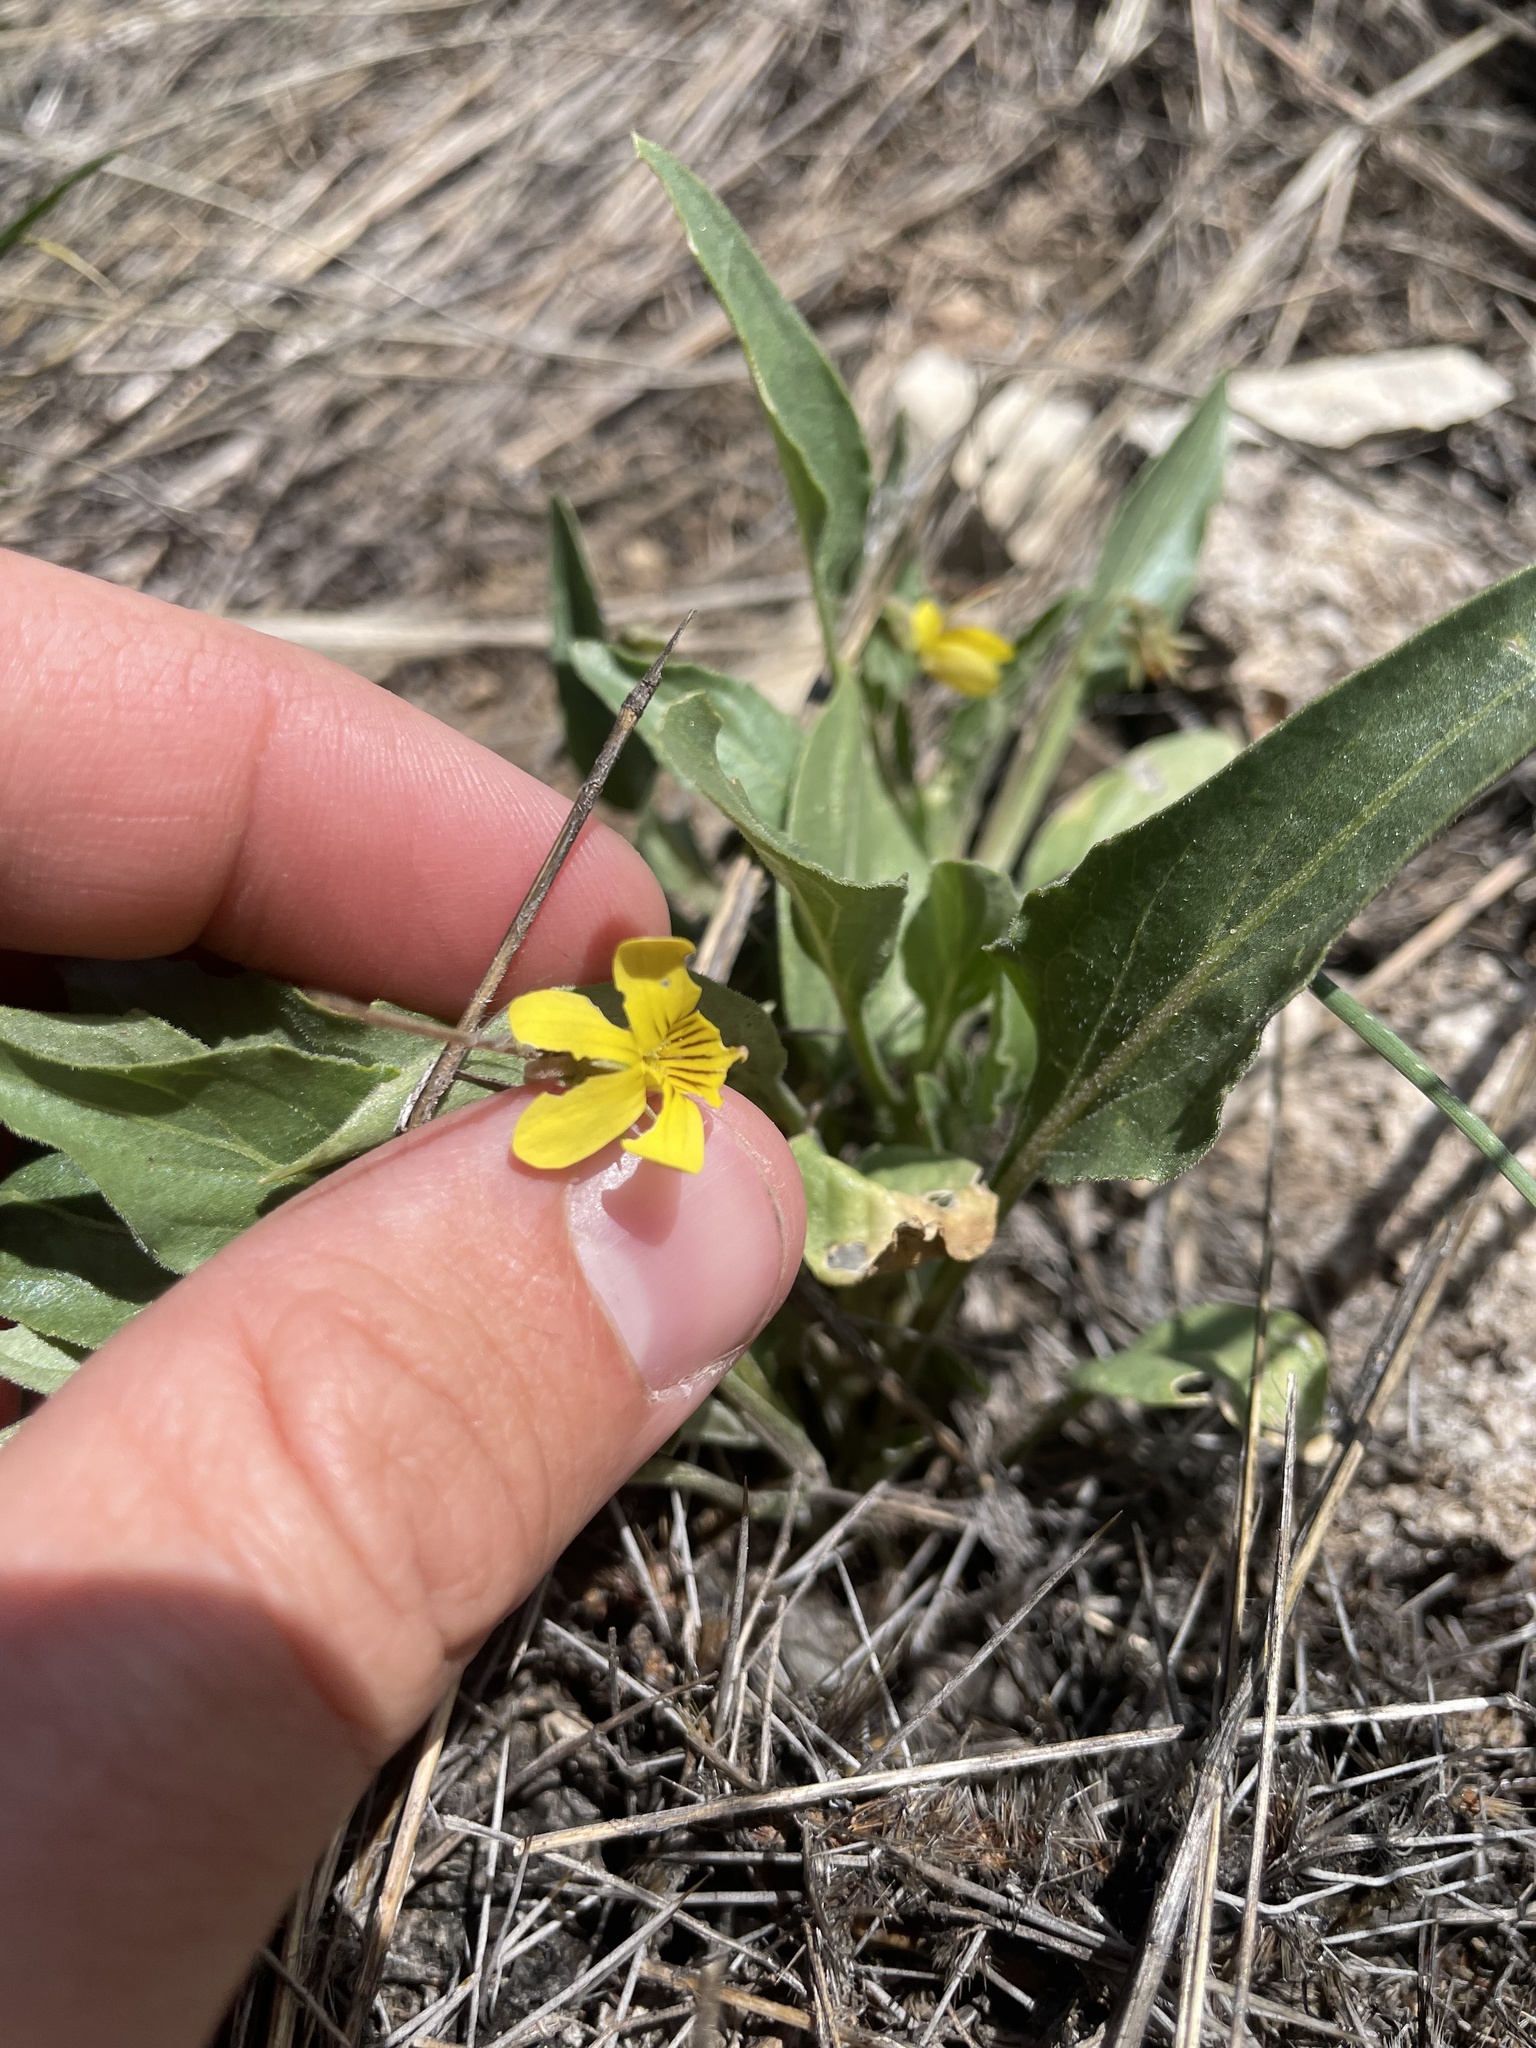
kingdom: Plantae
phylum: Tracheophyta
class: Magnoliopsida
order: Malpighiales
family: Violaceae
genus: Viola
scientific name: Viola nuttallii
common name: Yellow prairie violet
